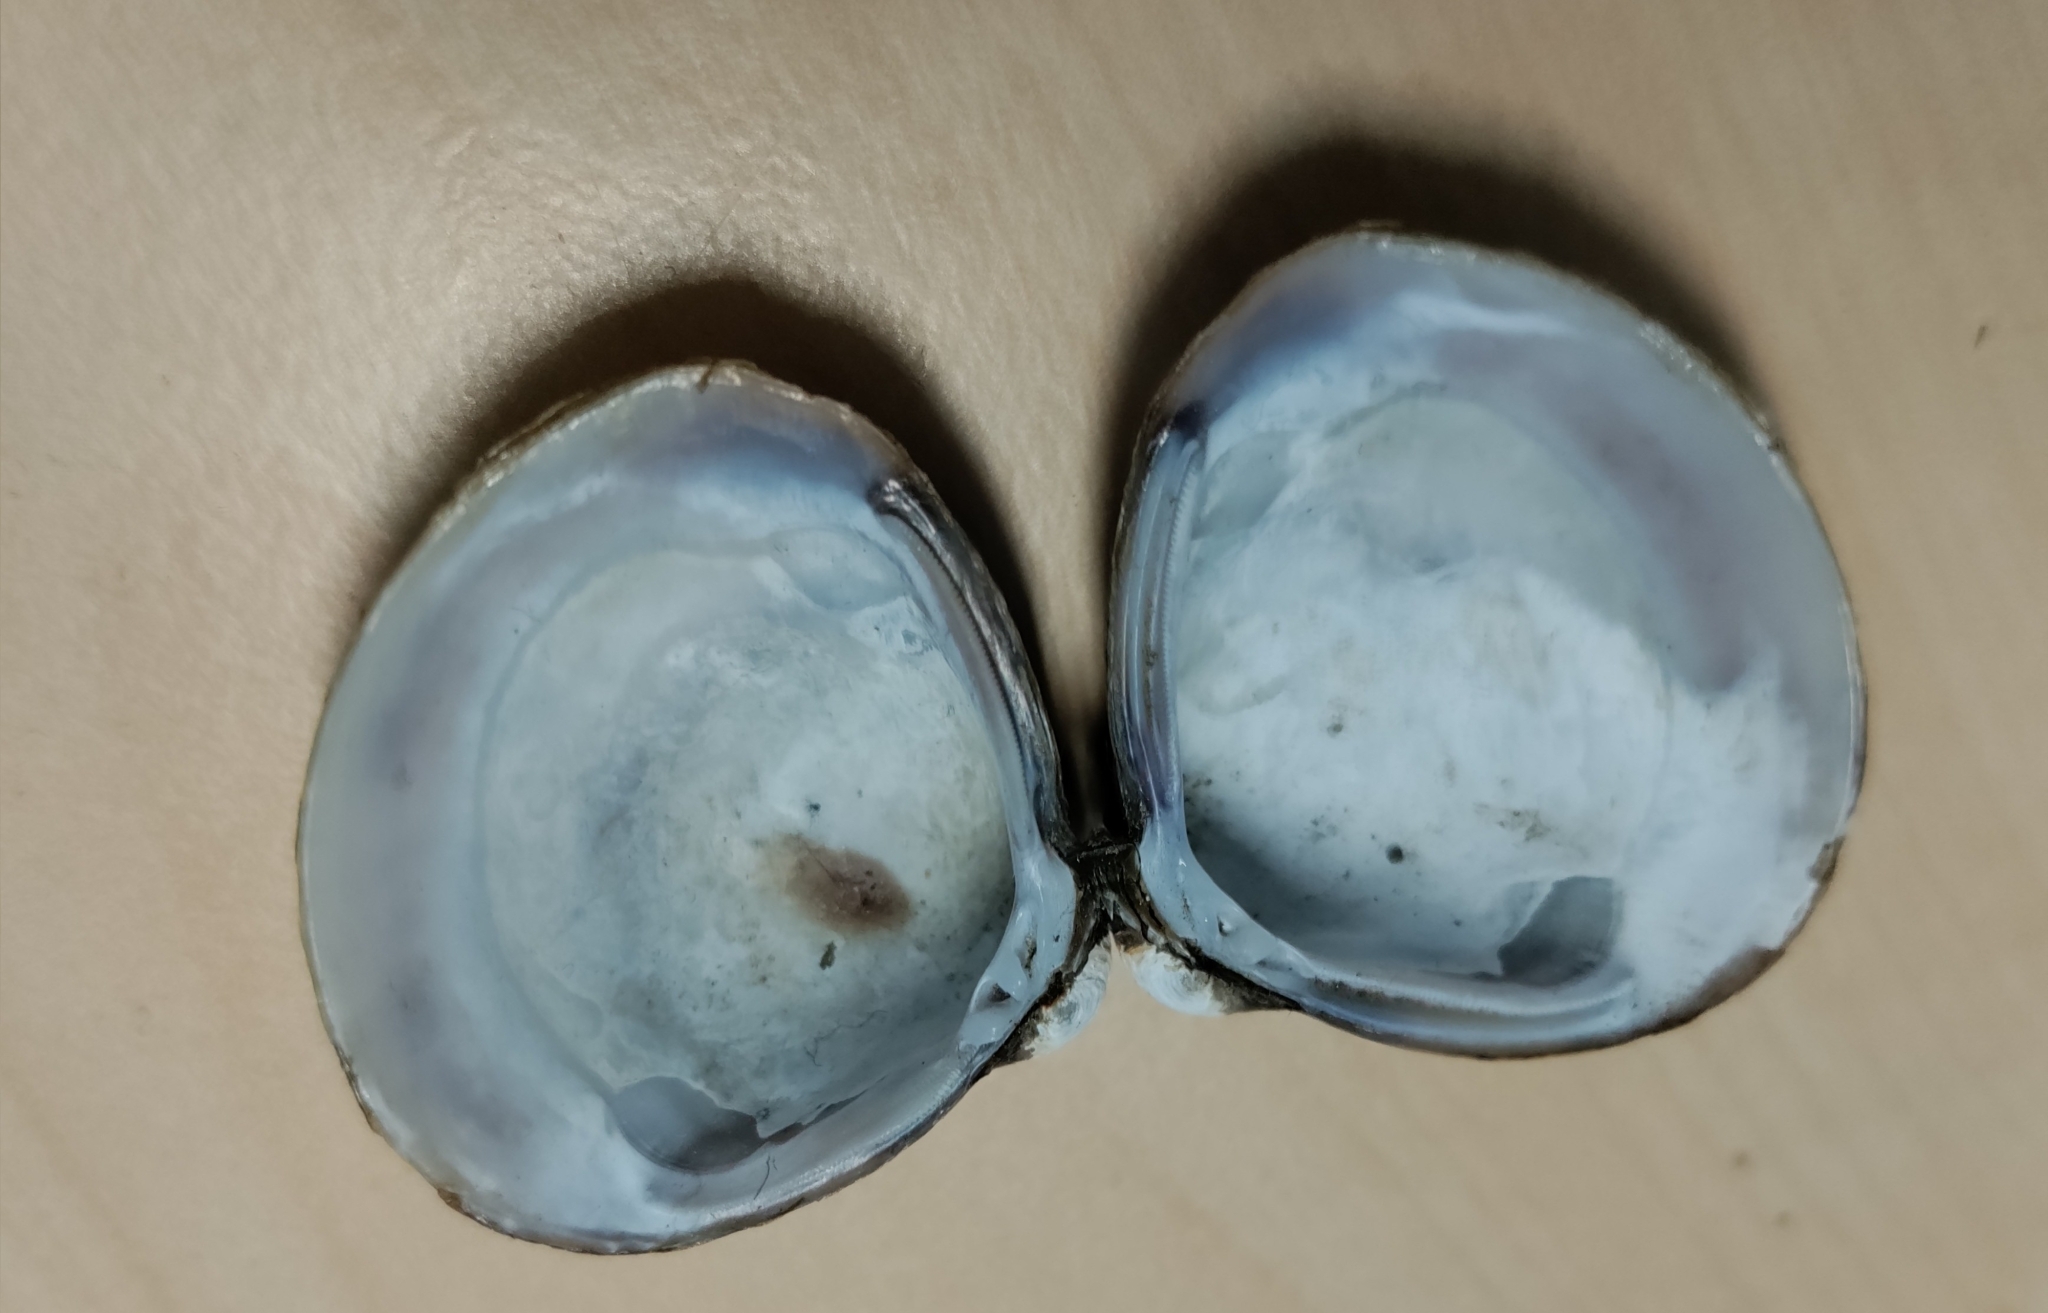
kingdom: Animalia
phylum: Mollusca
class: Bivalvia
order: Venerida
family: Cyrenidae
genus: Corbicula
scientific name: Corbicula fluminea
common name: Asian clam
